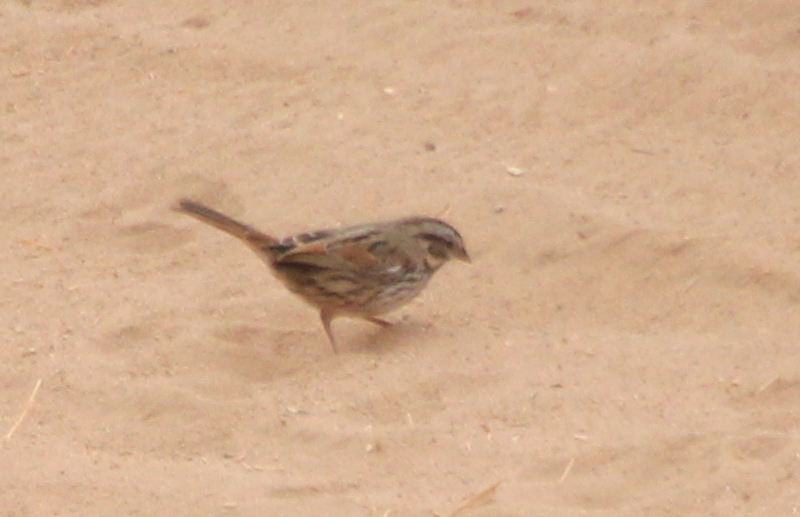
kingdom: Animalia
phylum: Chordata
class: Aves
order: Passeriformes
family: Passerellidae
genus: Melospiza
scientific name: Melospiza melodia
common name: Song sparrow
